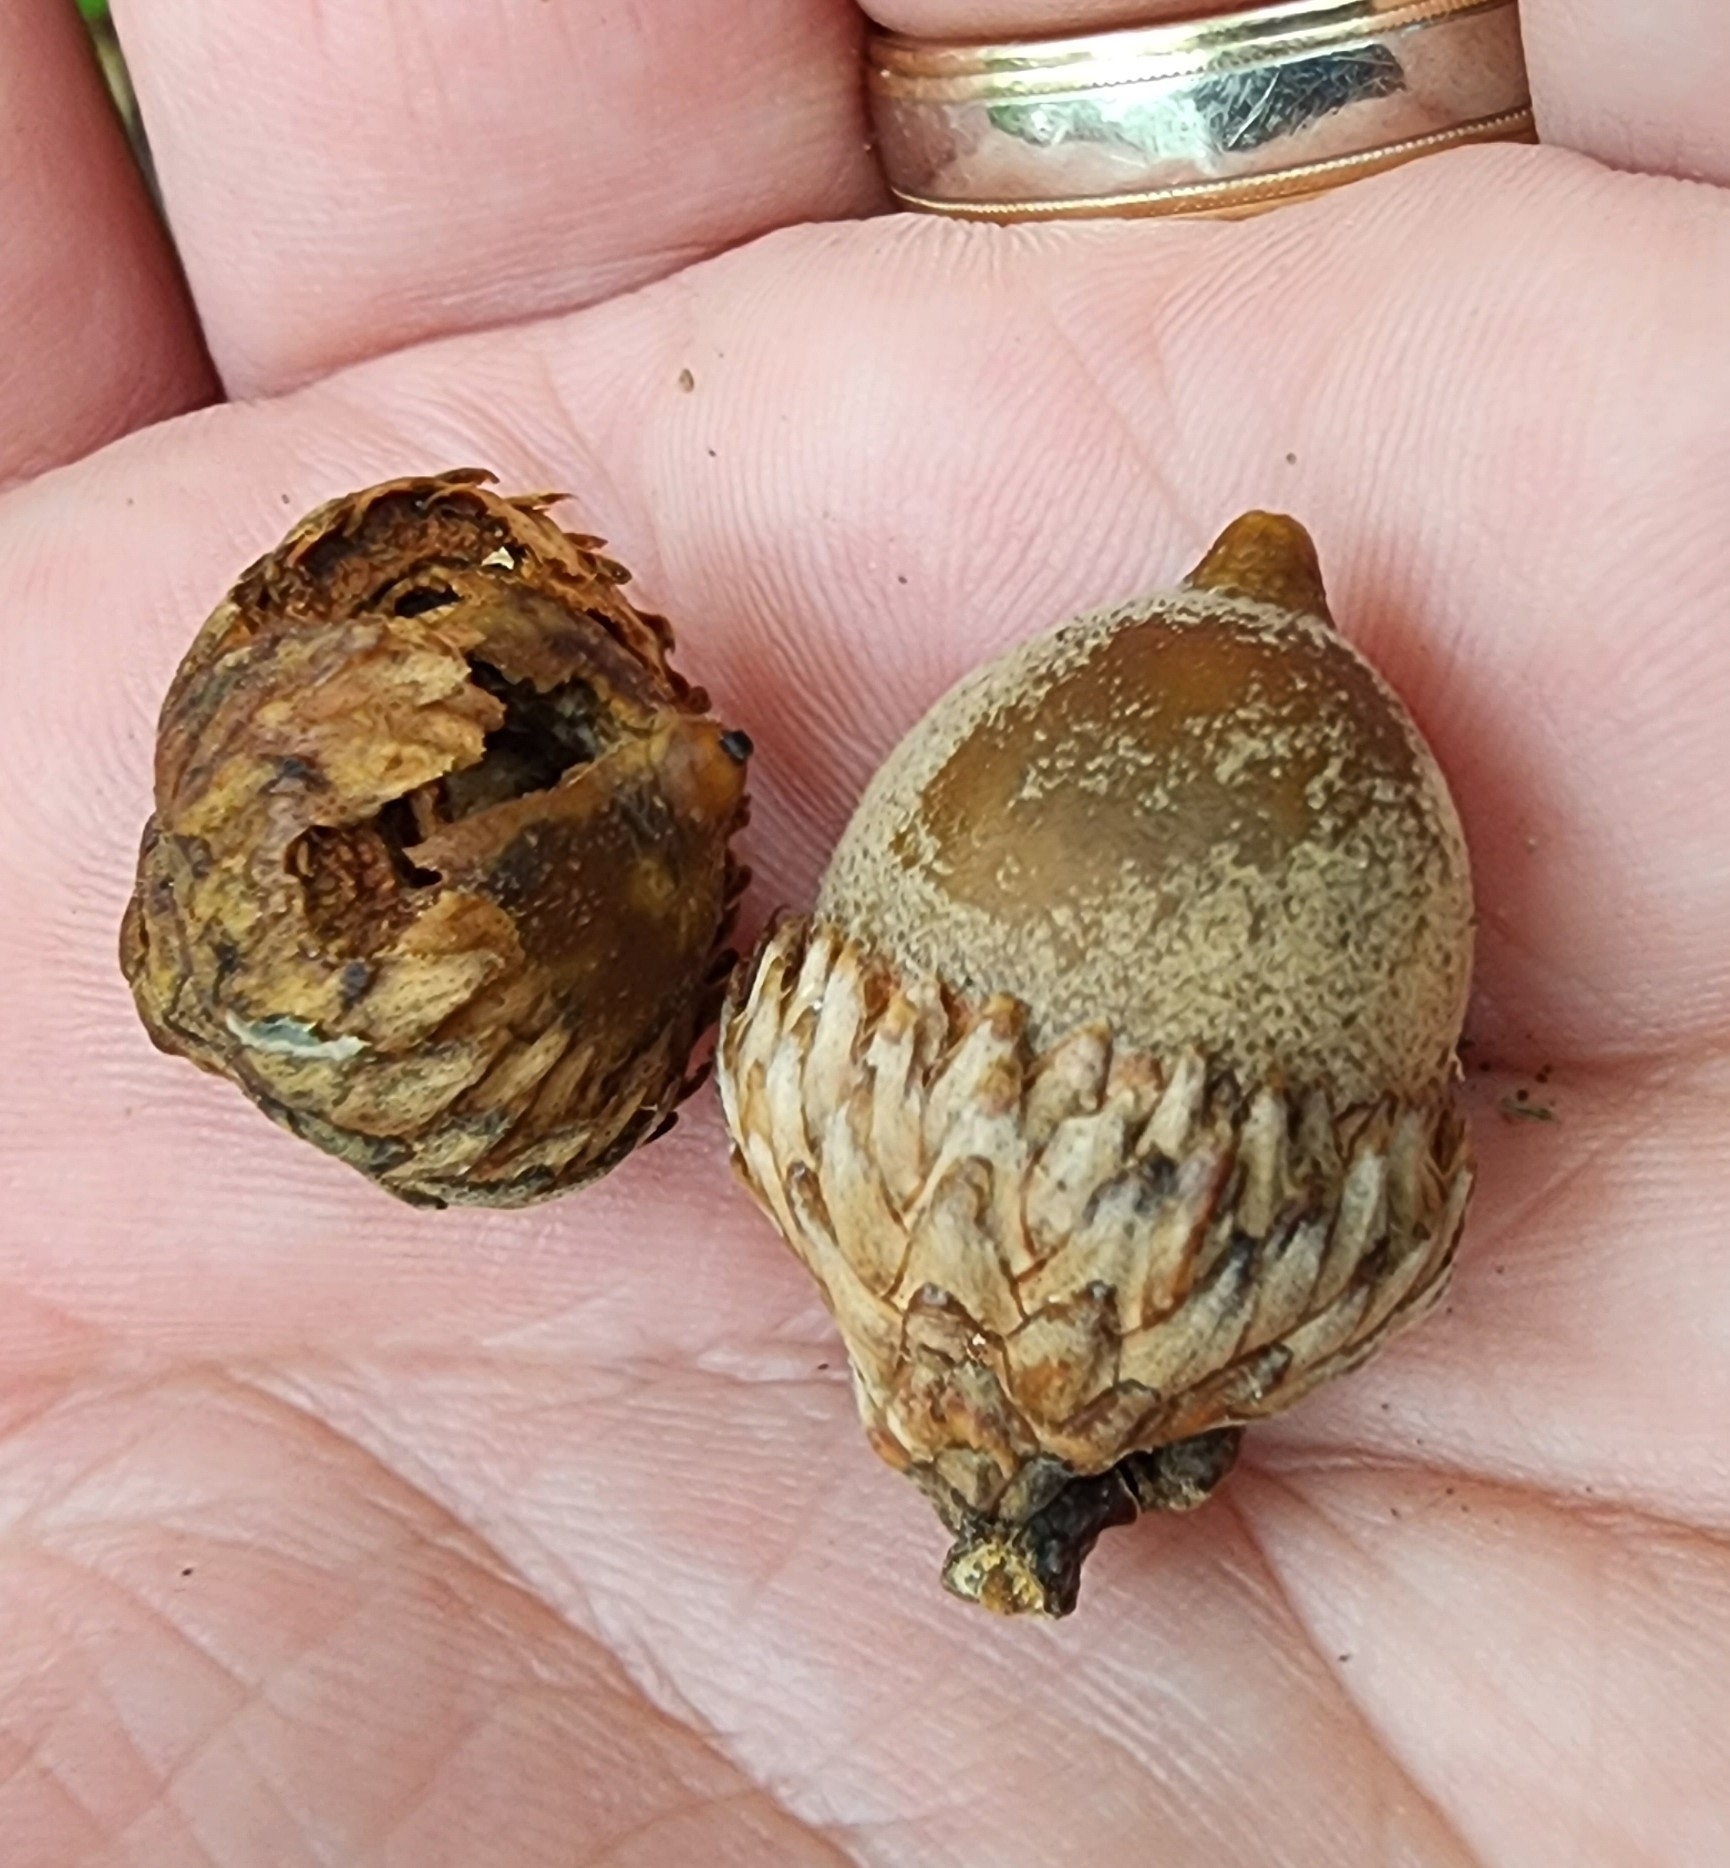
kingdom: Plantae
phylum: Tracheophyta
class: Magnoliopsida
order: Fagales
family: Fagaceae
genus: Quercus
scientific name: Quercus velutina
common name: Black oak
